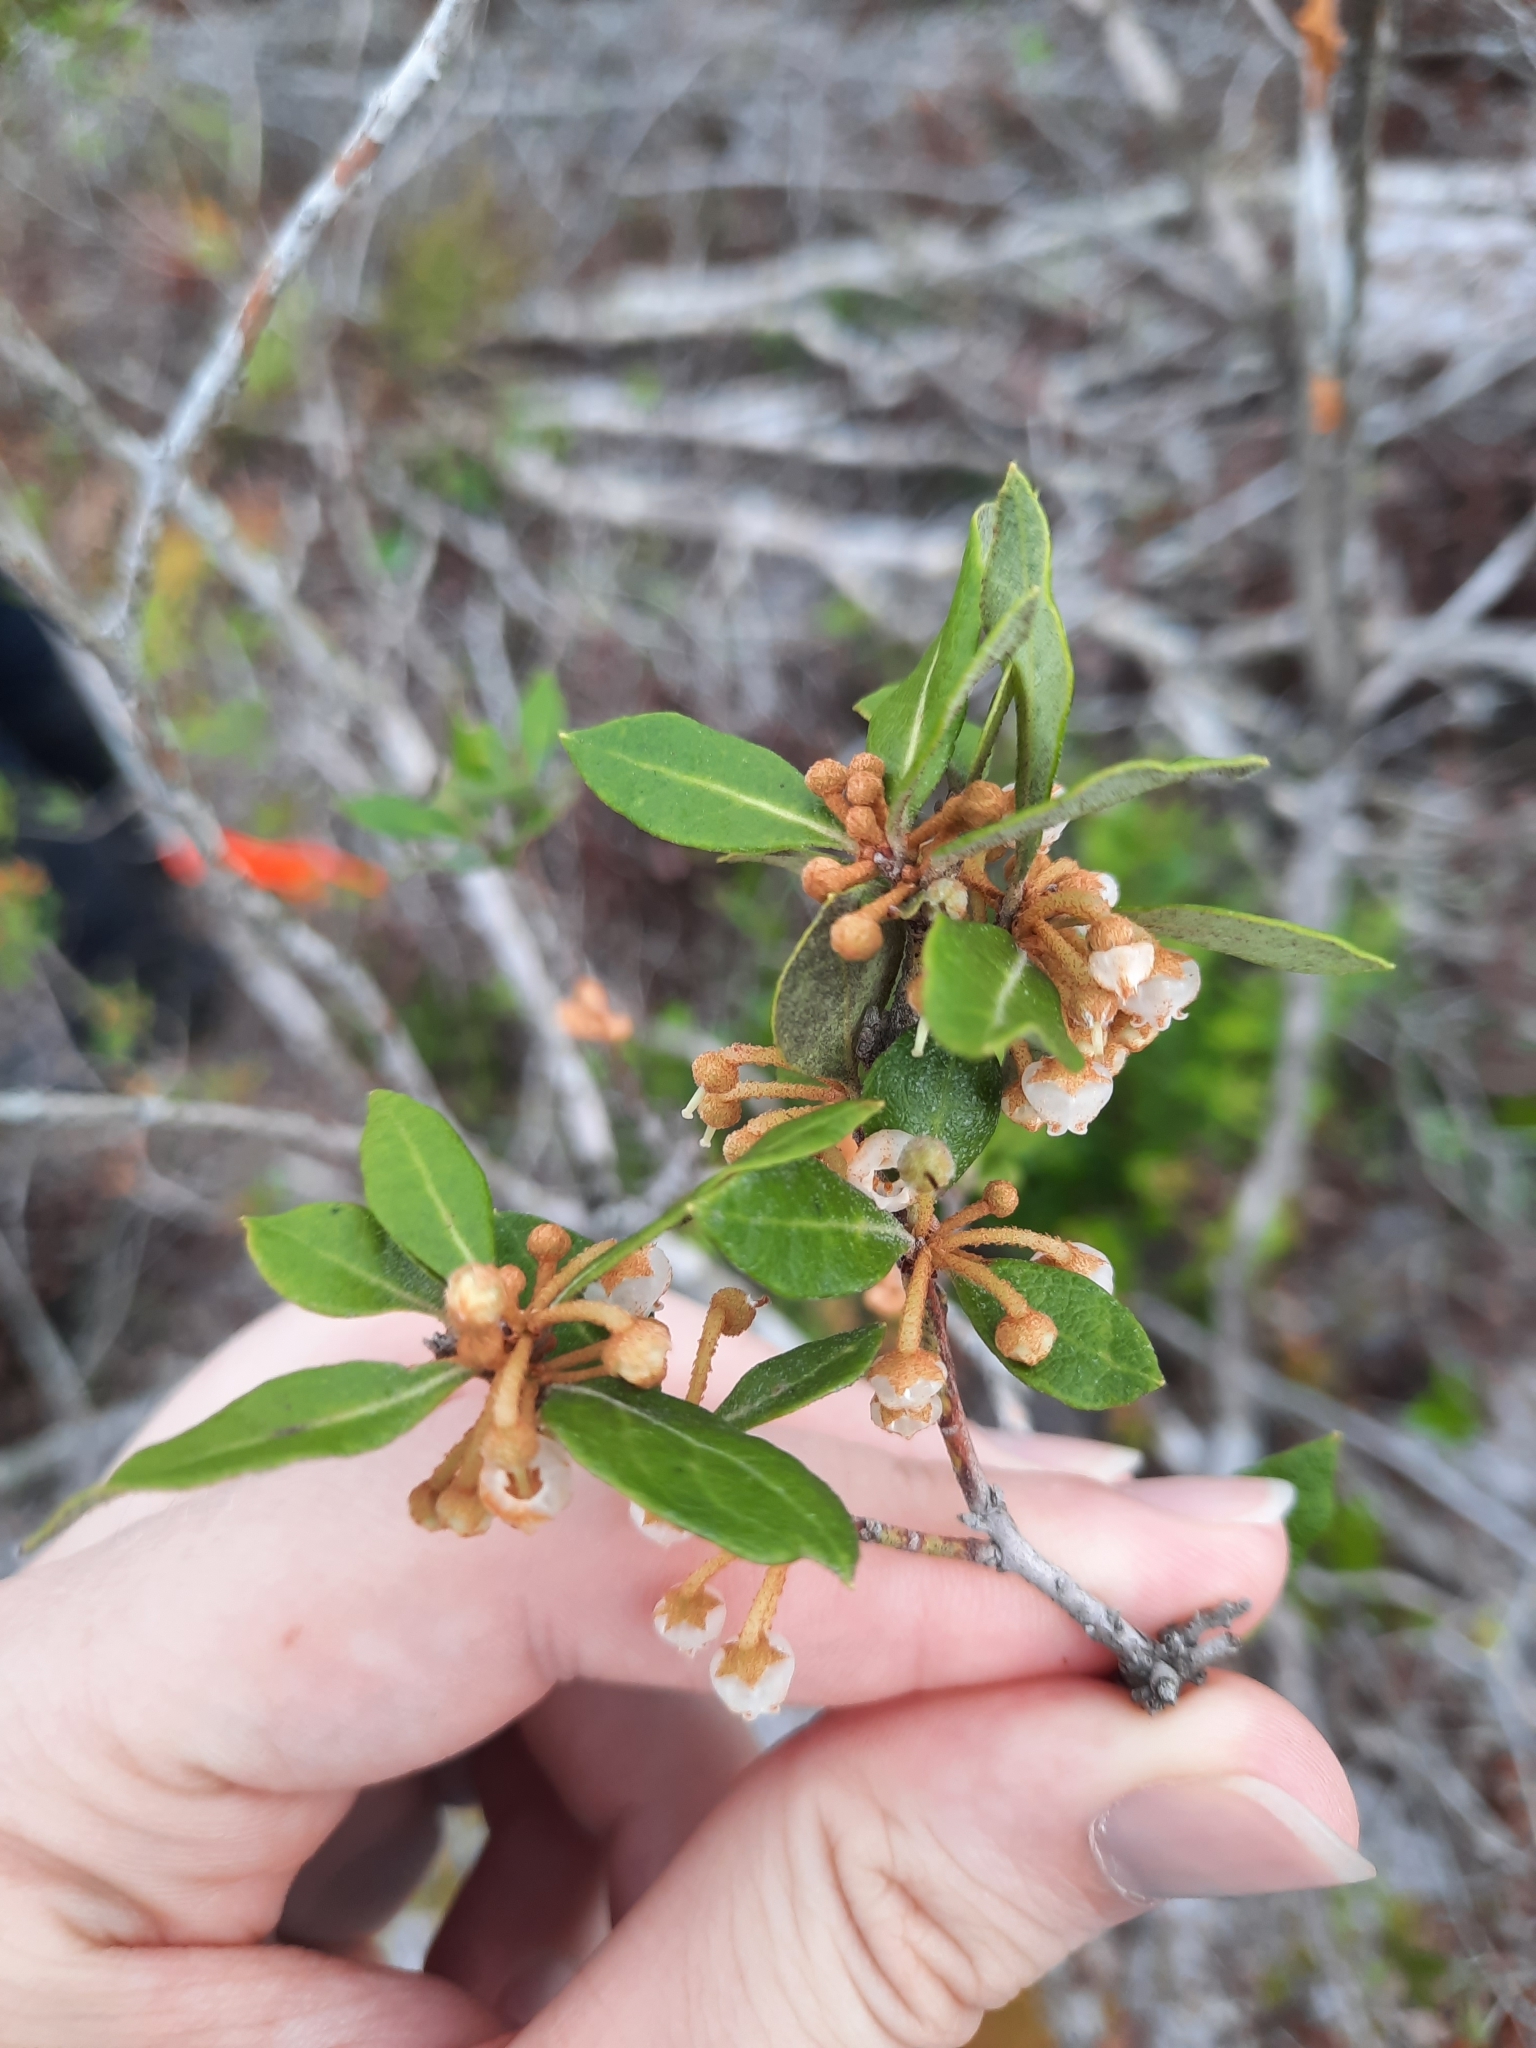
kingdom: Plantae
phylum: Tracheophyta
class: Magnoliopsida
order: Ericales
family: Ericaceae
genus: Lyonia
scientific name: Lyonia ferruginea
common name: Rusty lyonia
